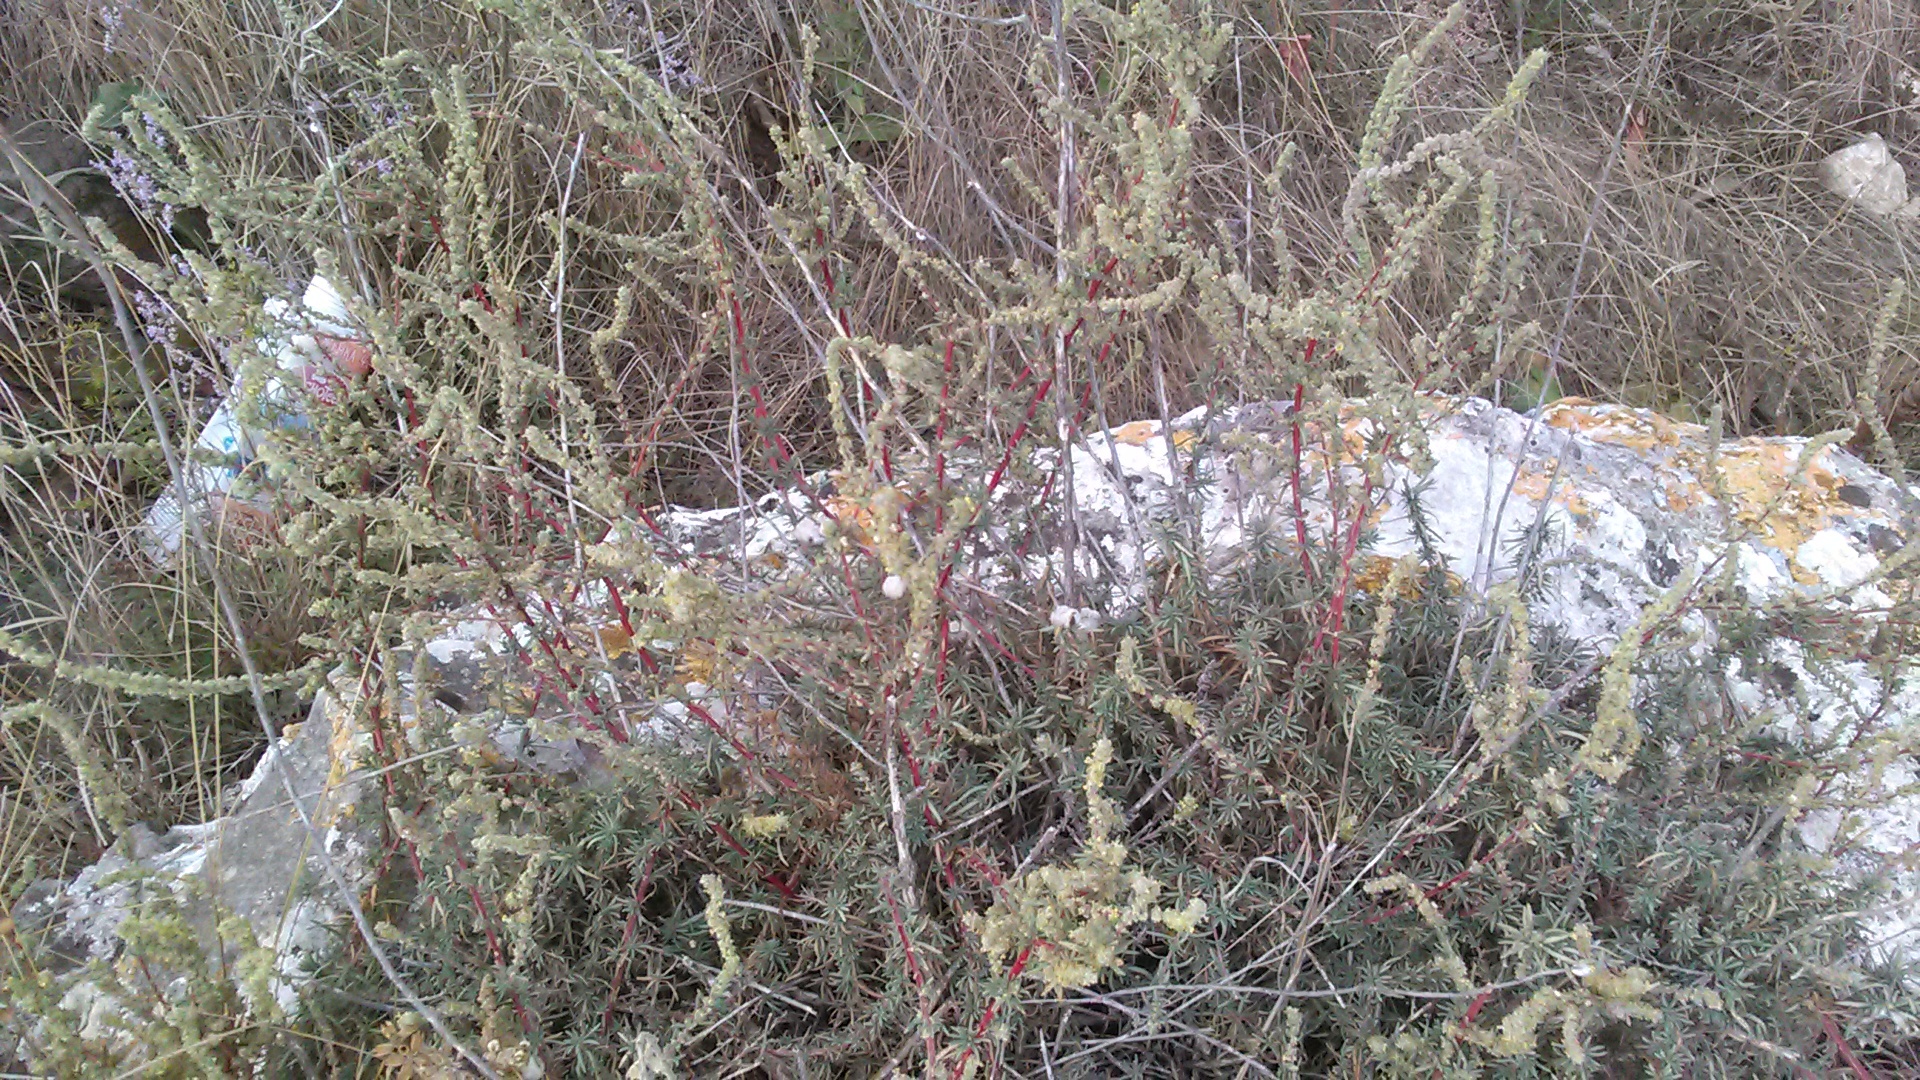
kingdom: Plantae
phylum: Tracheophyta
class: Magnoliopsida
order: Caryophyllales
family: Amaranthaceae
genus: Bassia
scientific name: Bassia prostrata
